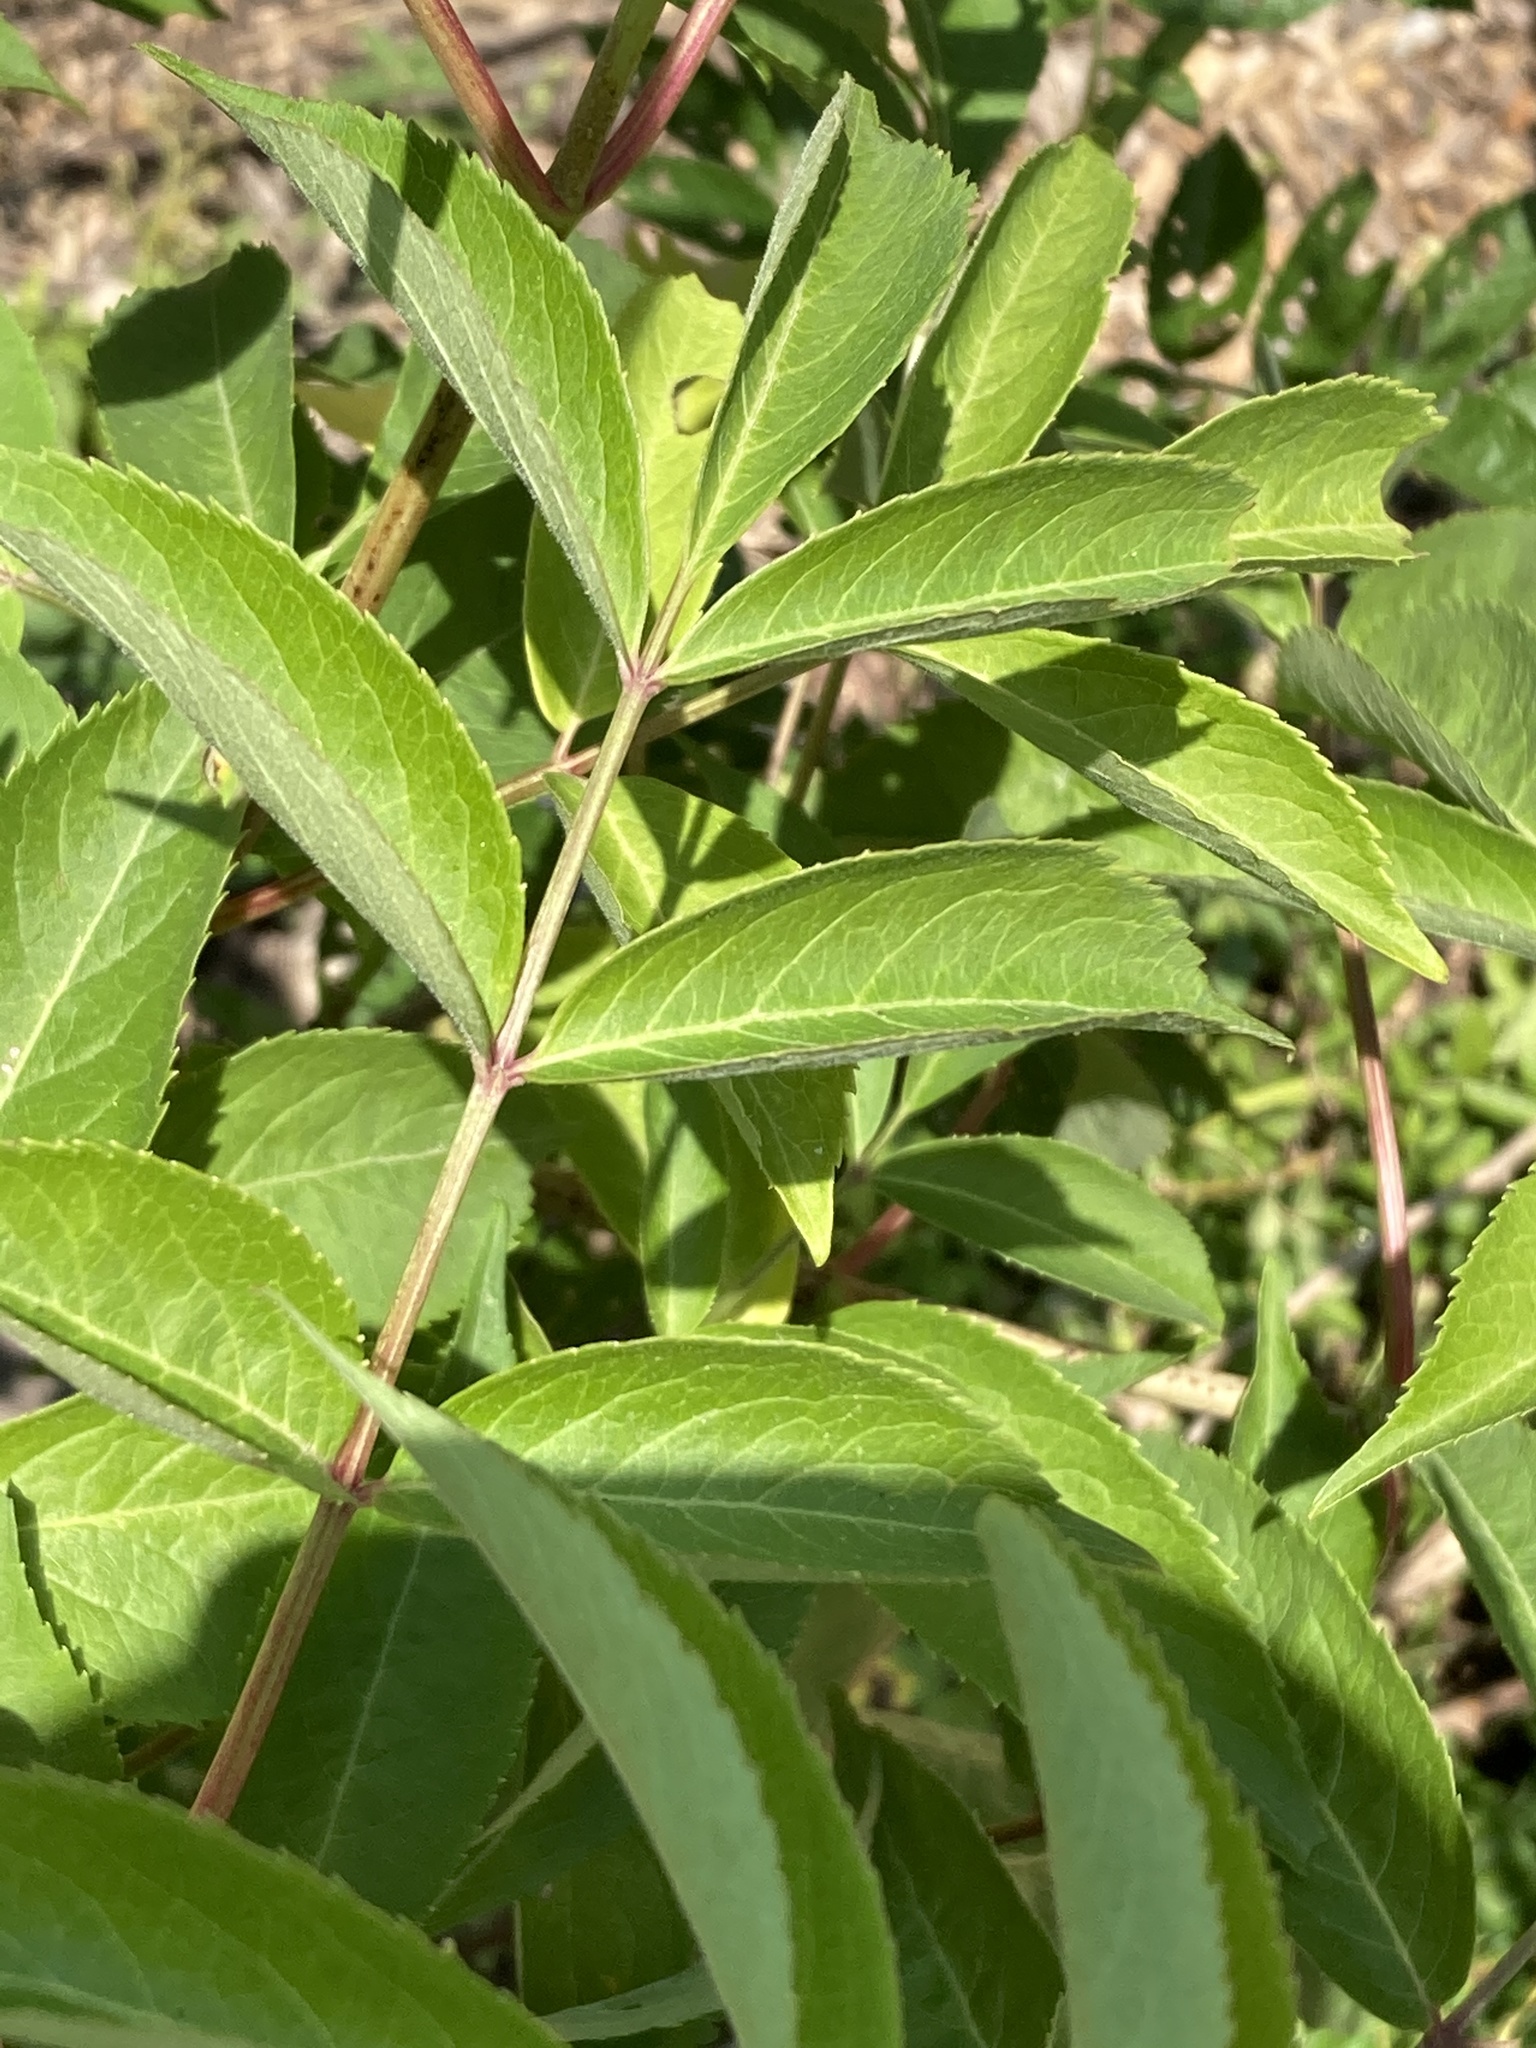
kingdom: Plantae
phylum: Tracheophyta
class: Magnoliopsida
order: Dipsacales
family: Viburnaceae
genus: Sambucus
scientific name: Sambucus canadensis
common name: American elder
